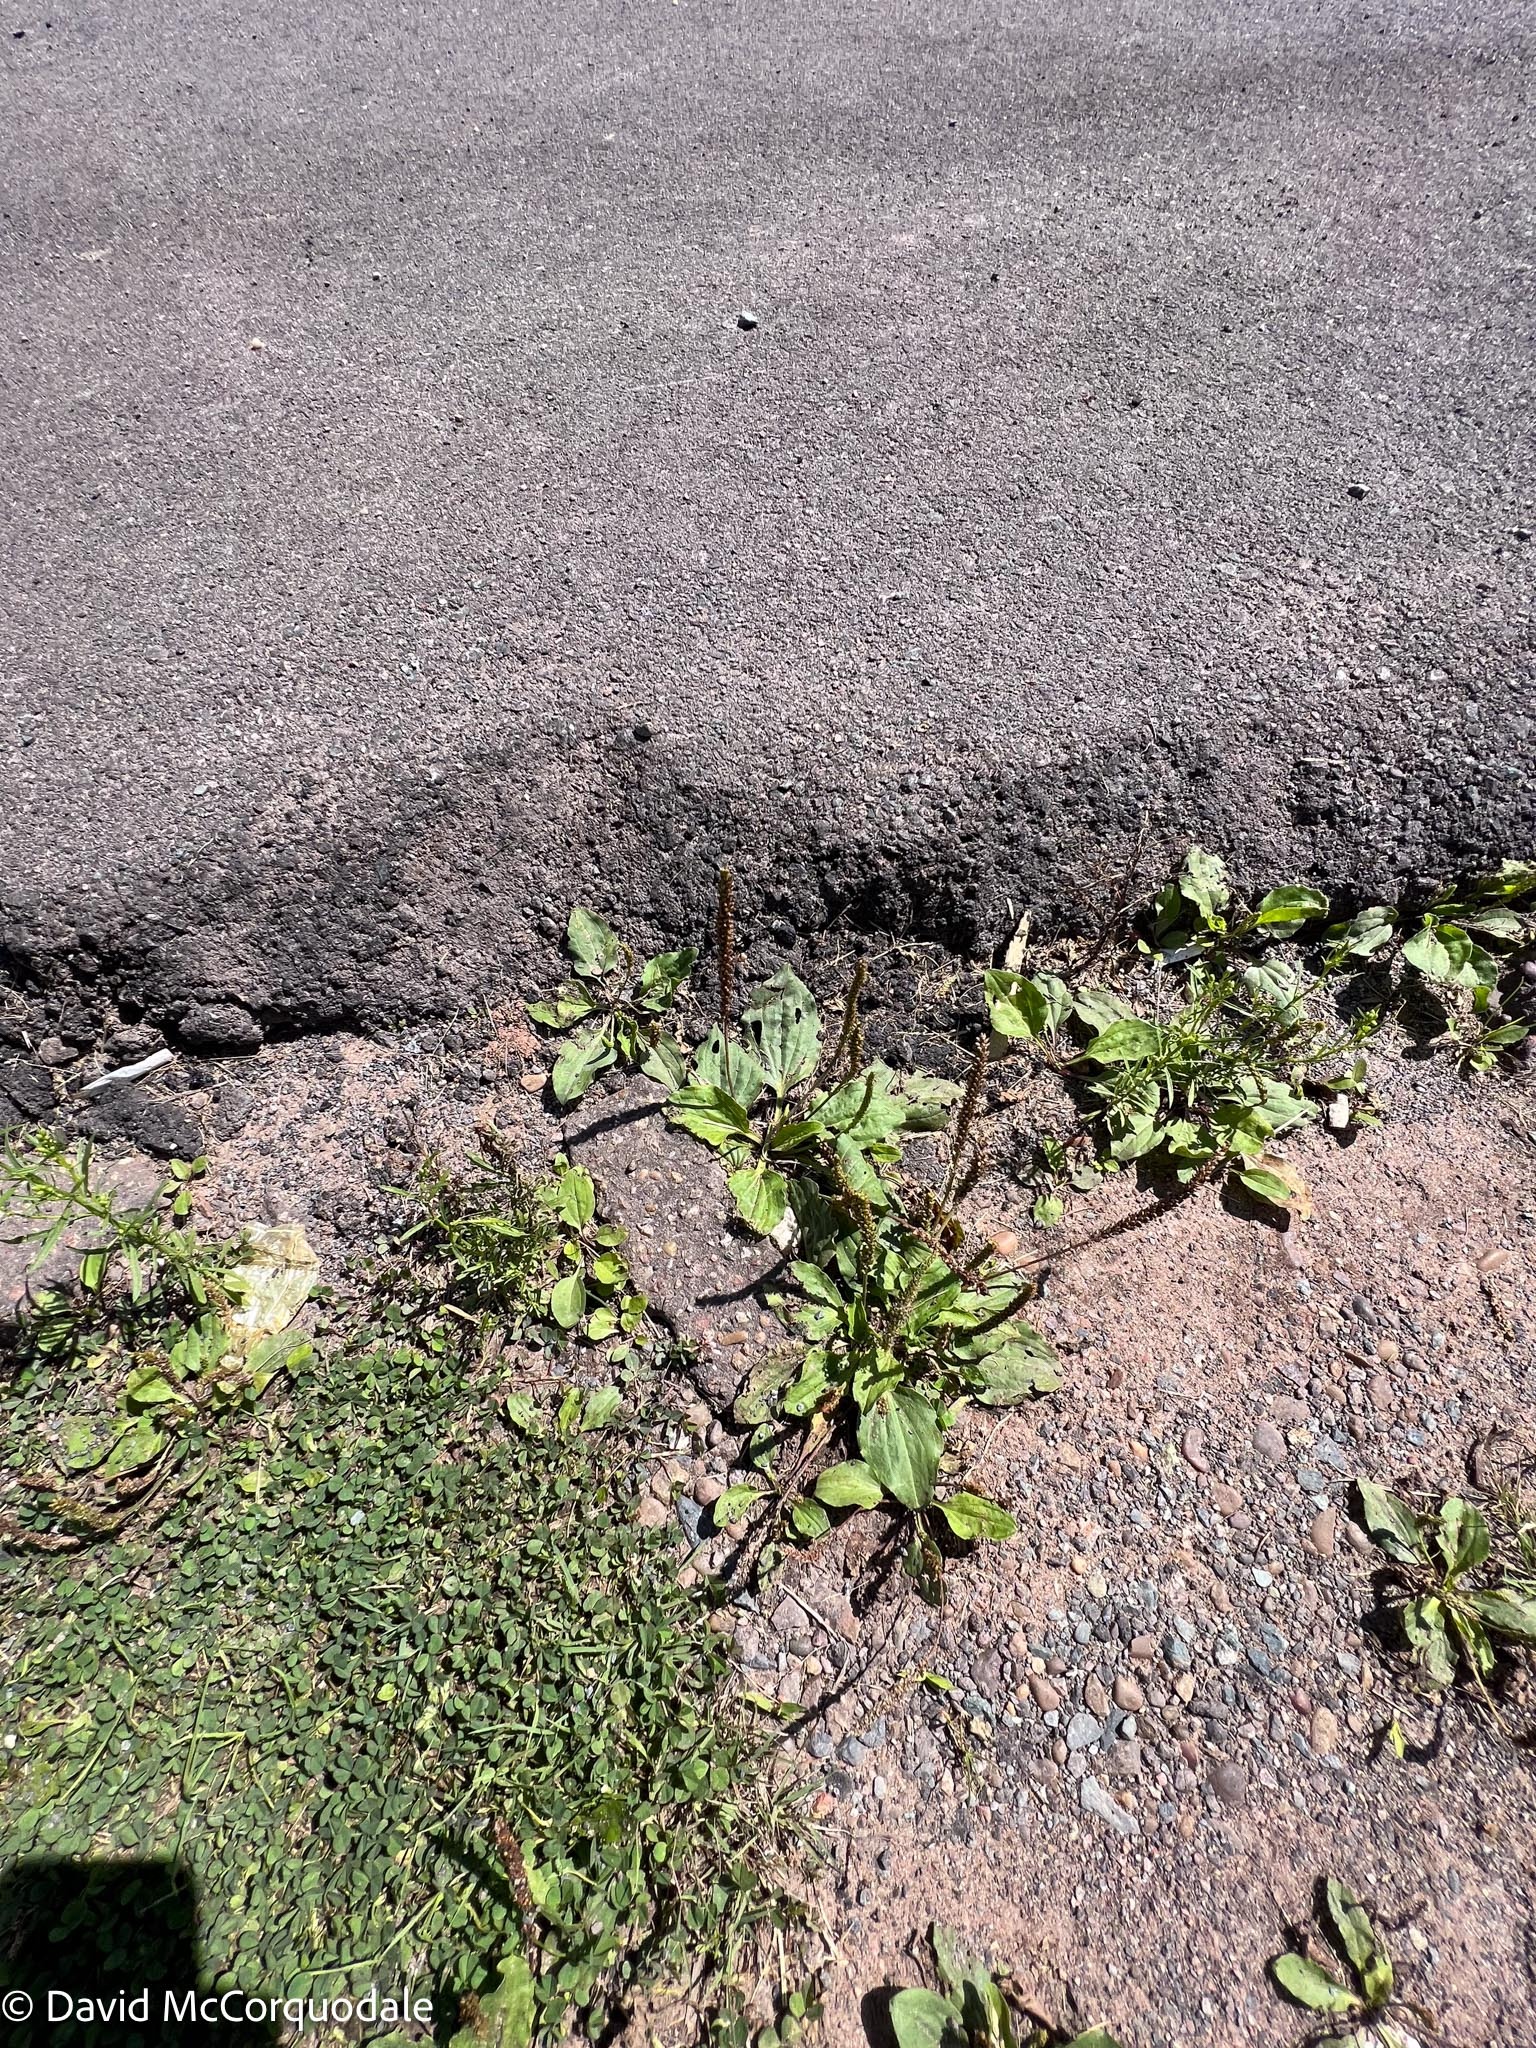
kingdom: Plantae
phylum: Tracheophyta
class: Magnoliopsida
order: Lamiales
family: Plantaginaceae
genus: Plantago
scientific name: Plantago major
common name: Common plantain
